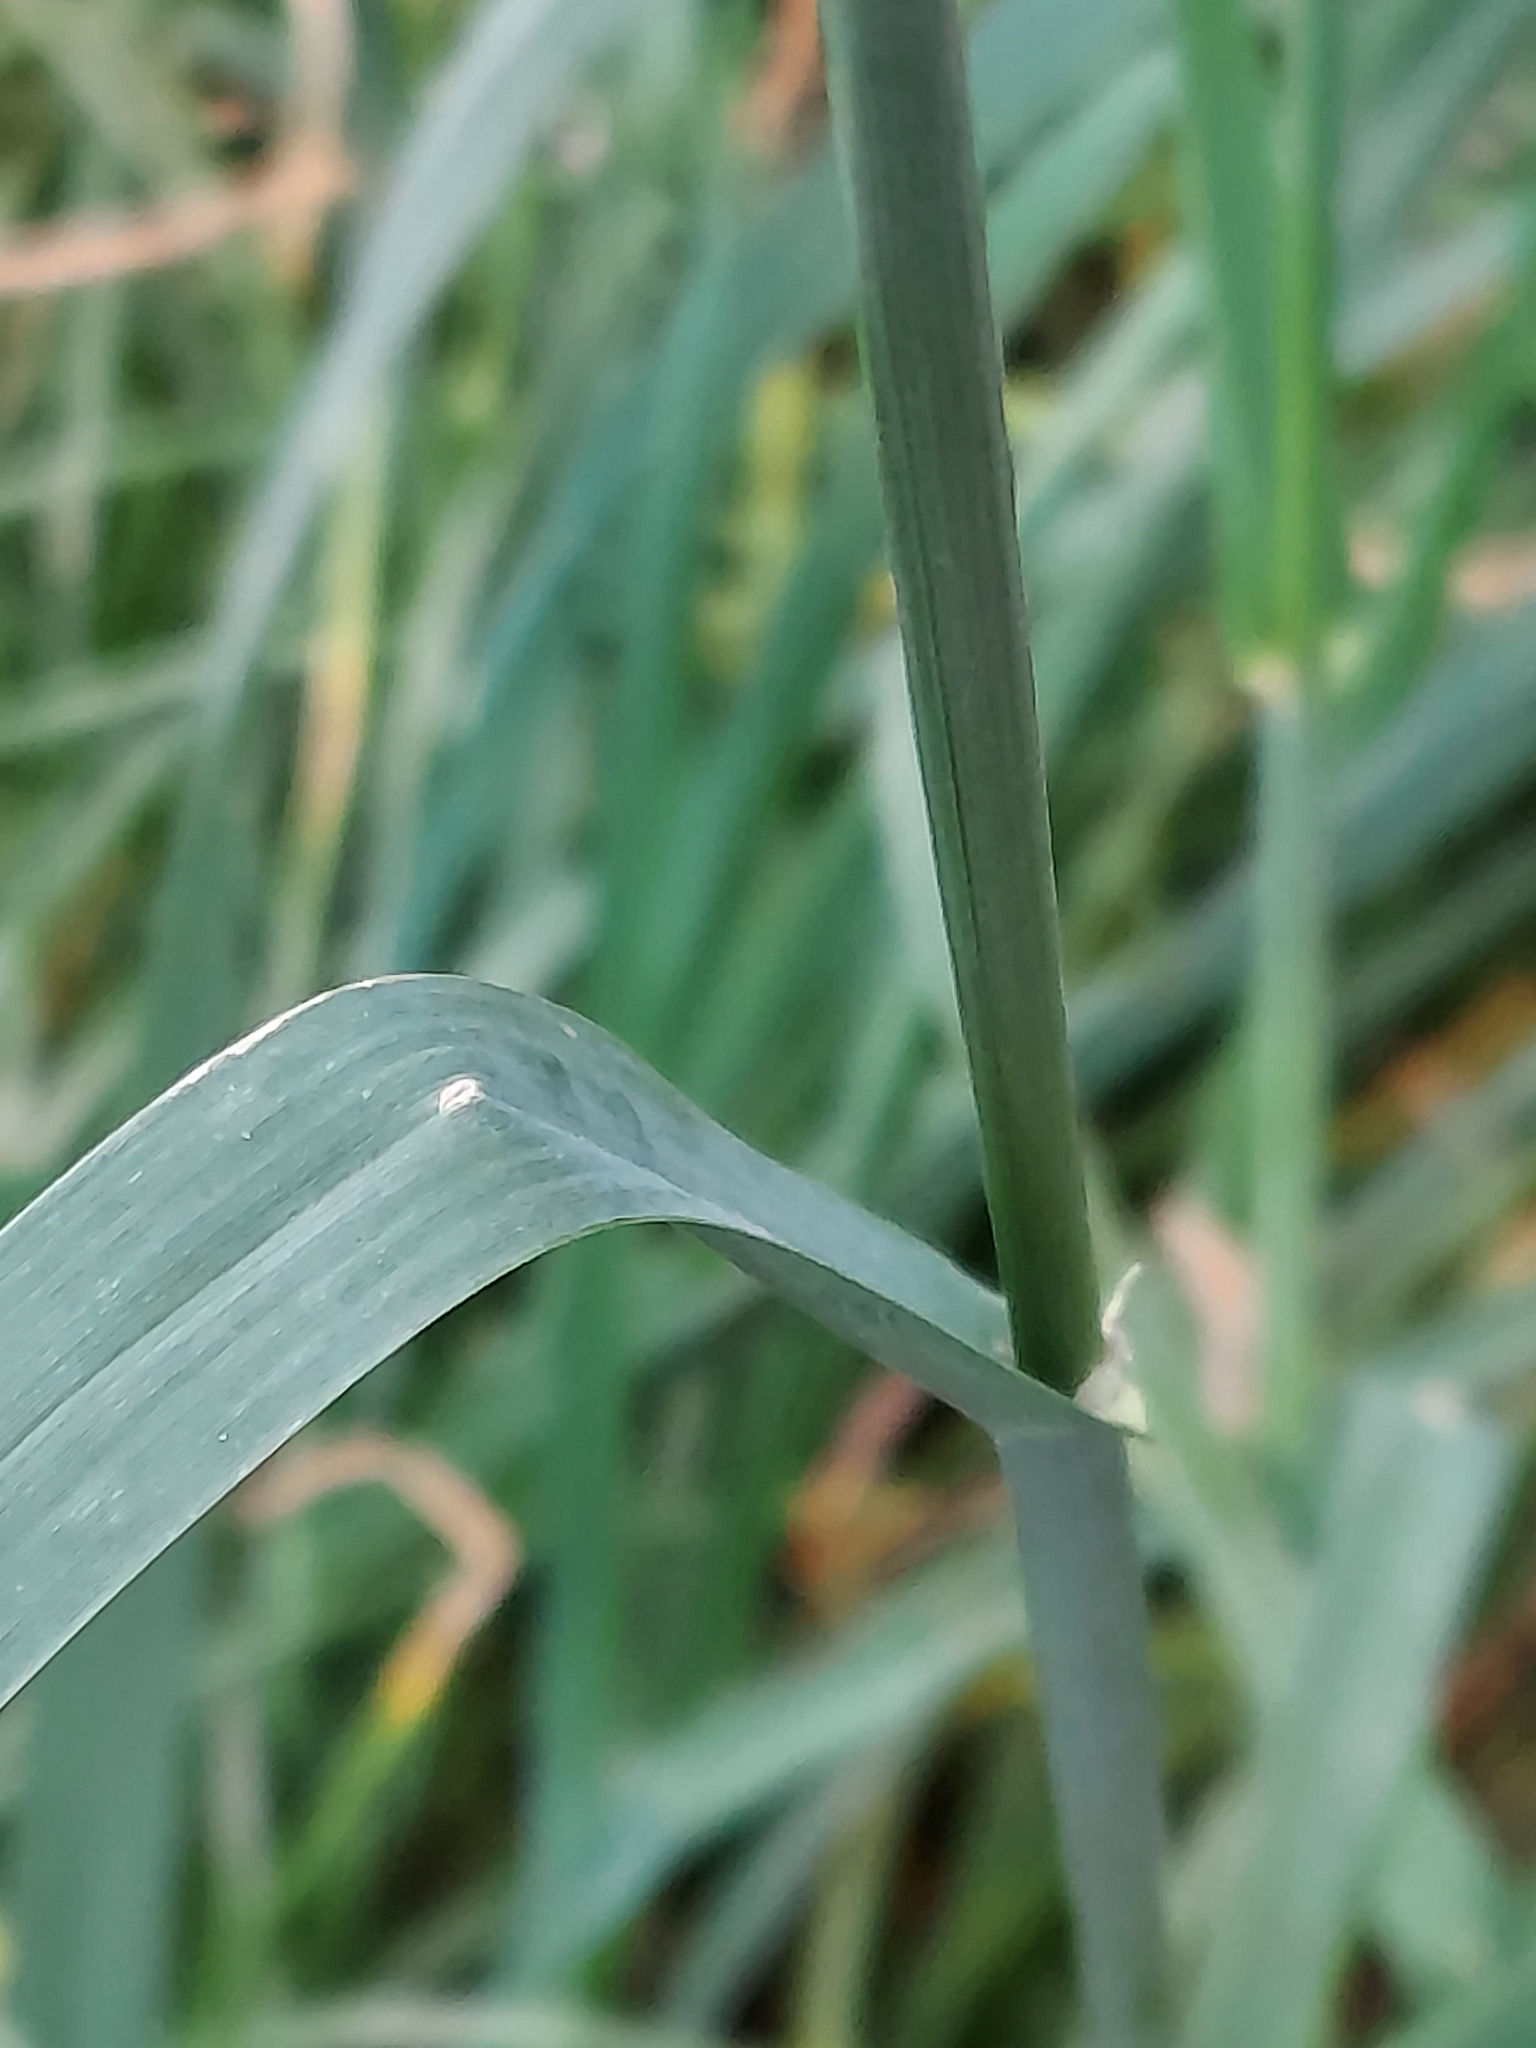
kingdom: Plantae
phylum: Tracheophyta
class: Liliopsida
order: Poales
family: Poaceae
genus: Dactylis
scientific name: Dactylis glomerata
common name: Orchardgrass
